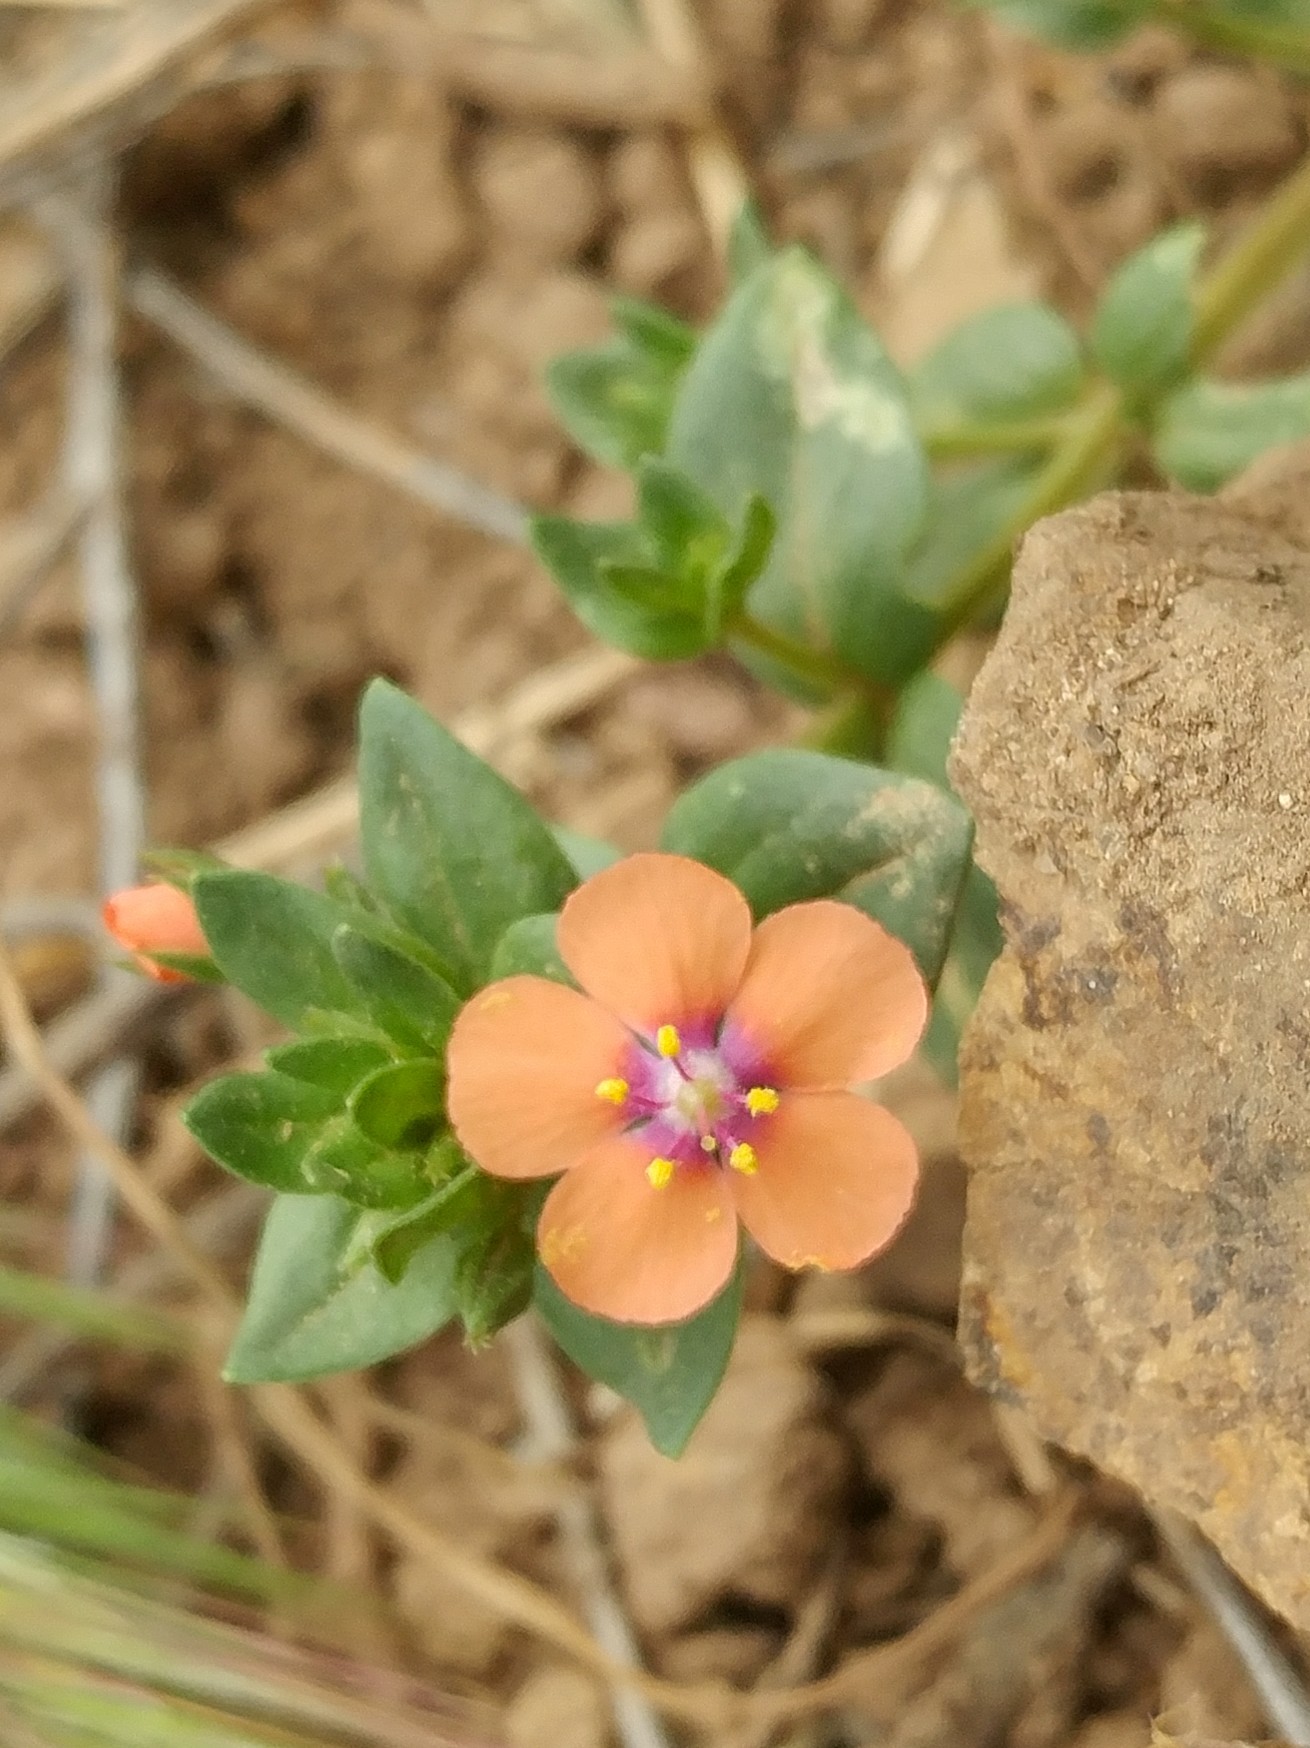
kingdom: Plantae
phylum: Tracheophyta
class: Magnoliopsida
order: Ericales
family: Primulaceae
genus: Lysimachia
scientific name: Lysimachia arvensis
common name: Scarlet pimpernel
